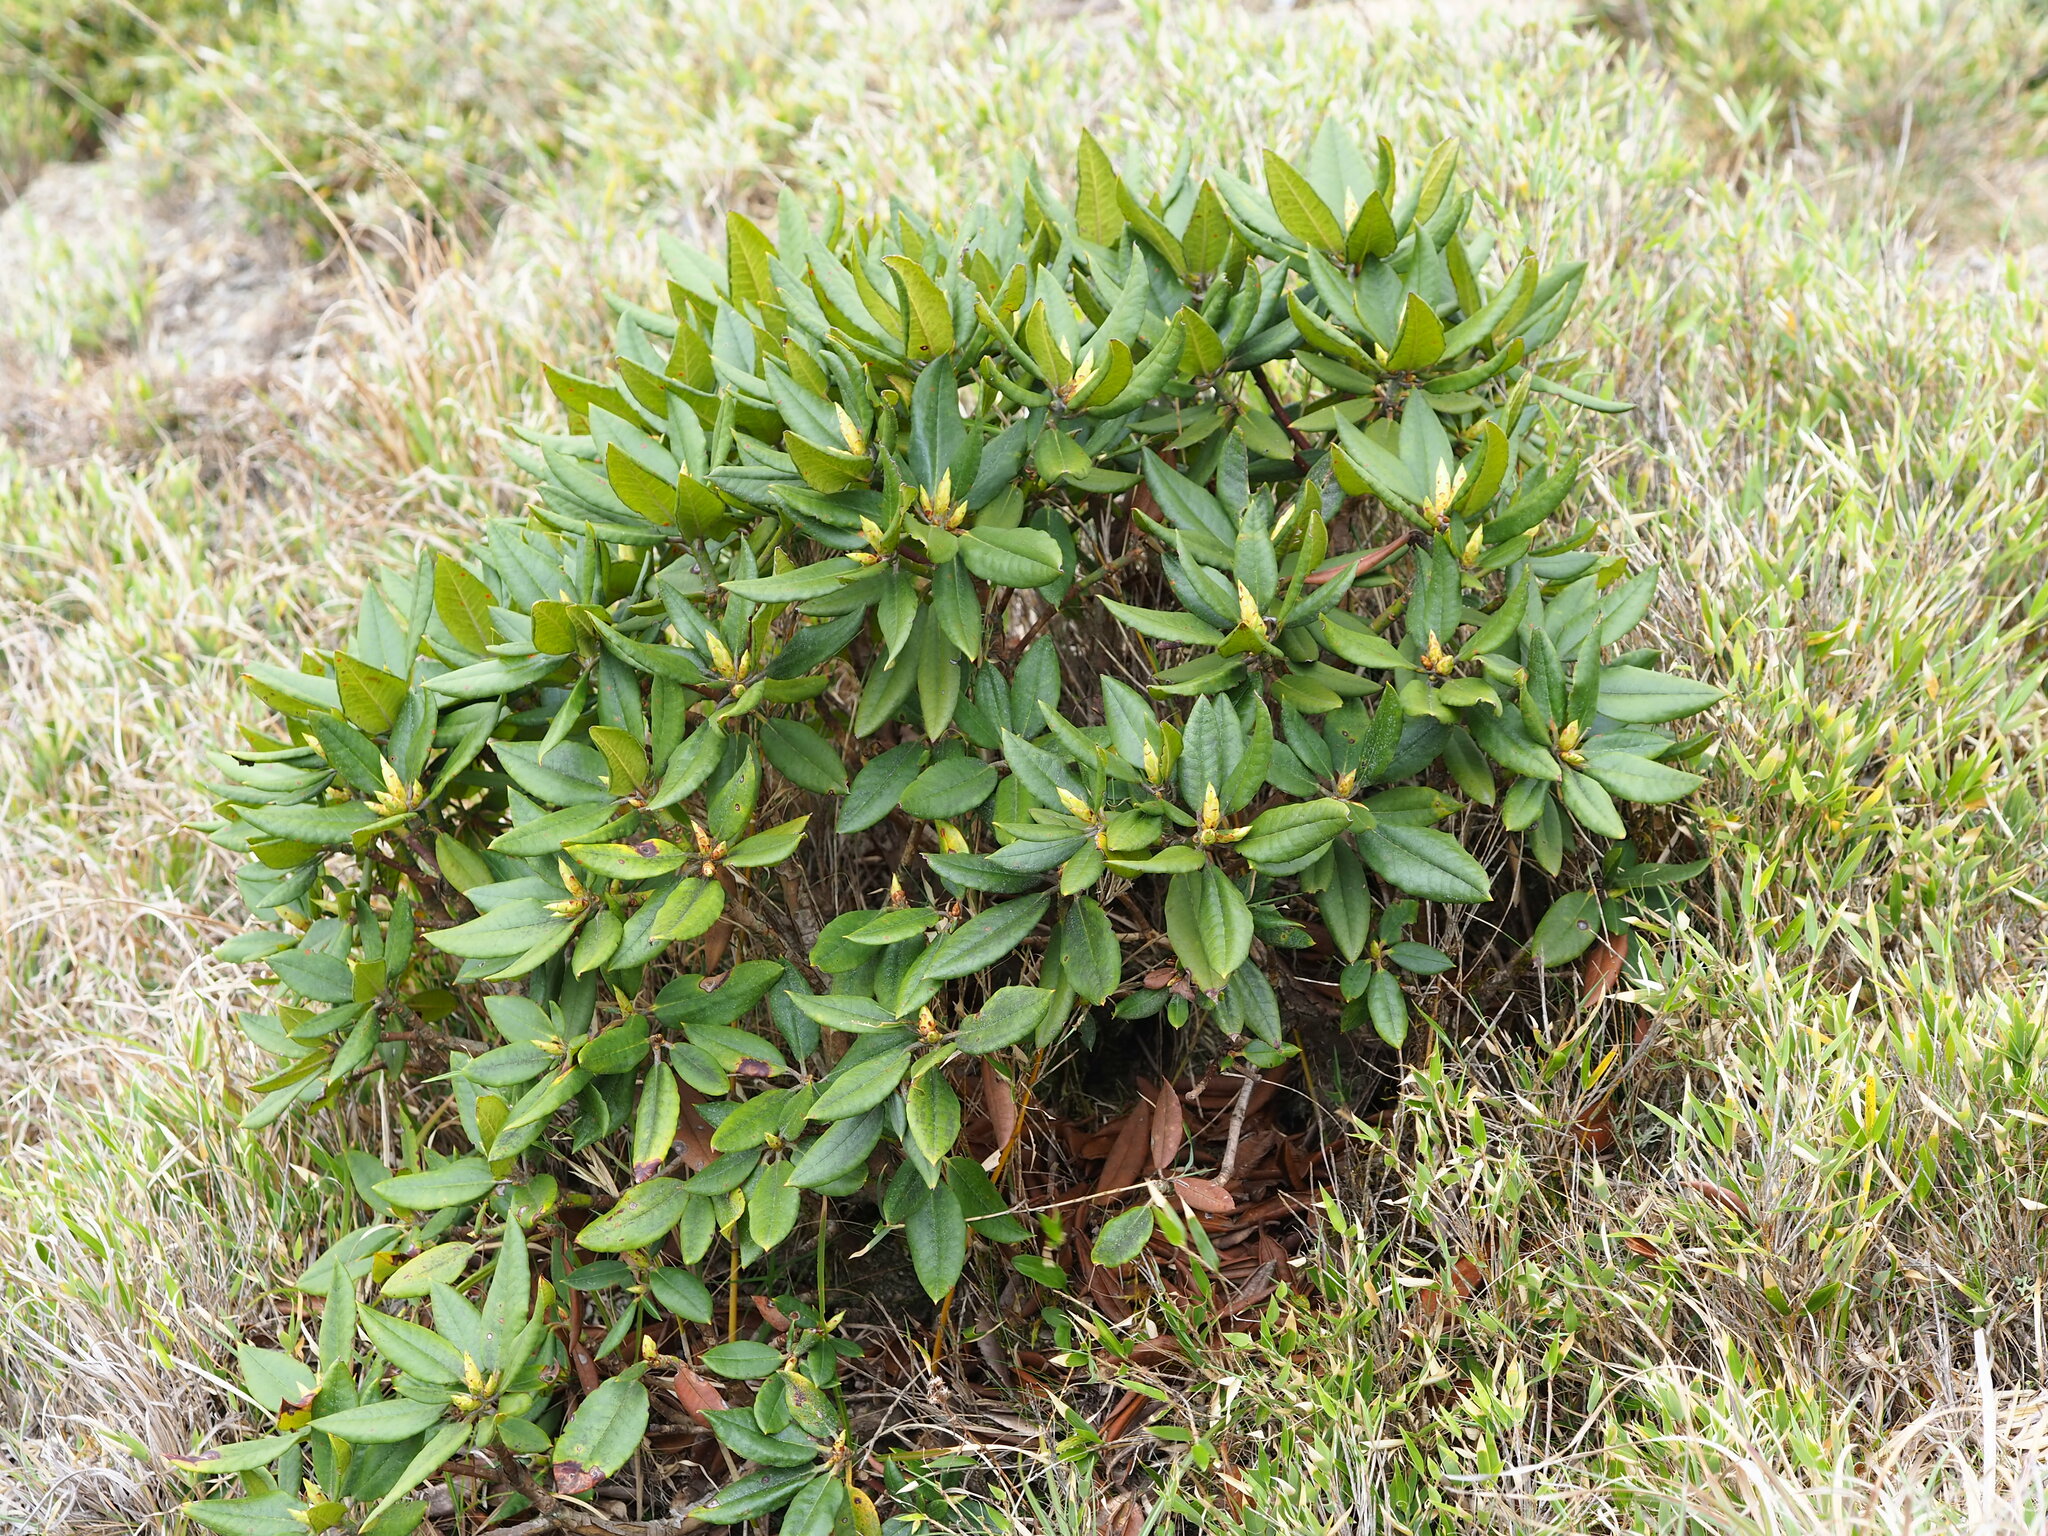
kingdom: Plantae
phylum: Tracheophyta
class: Magnoliopsida
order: Ericales
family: Ericaceae
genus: Rhododendron
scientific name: Rhododendron pseudochrysanthum
